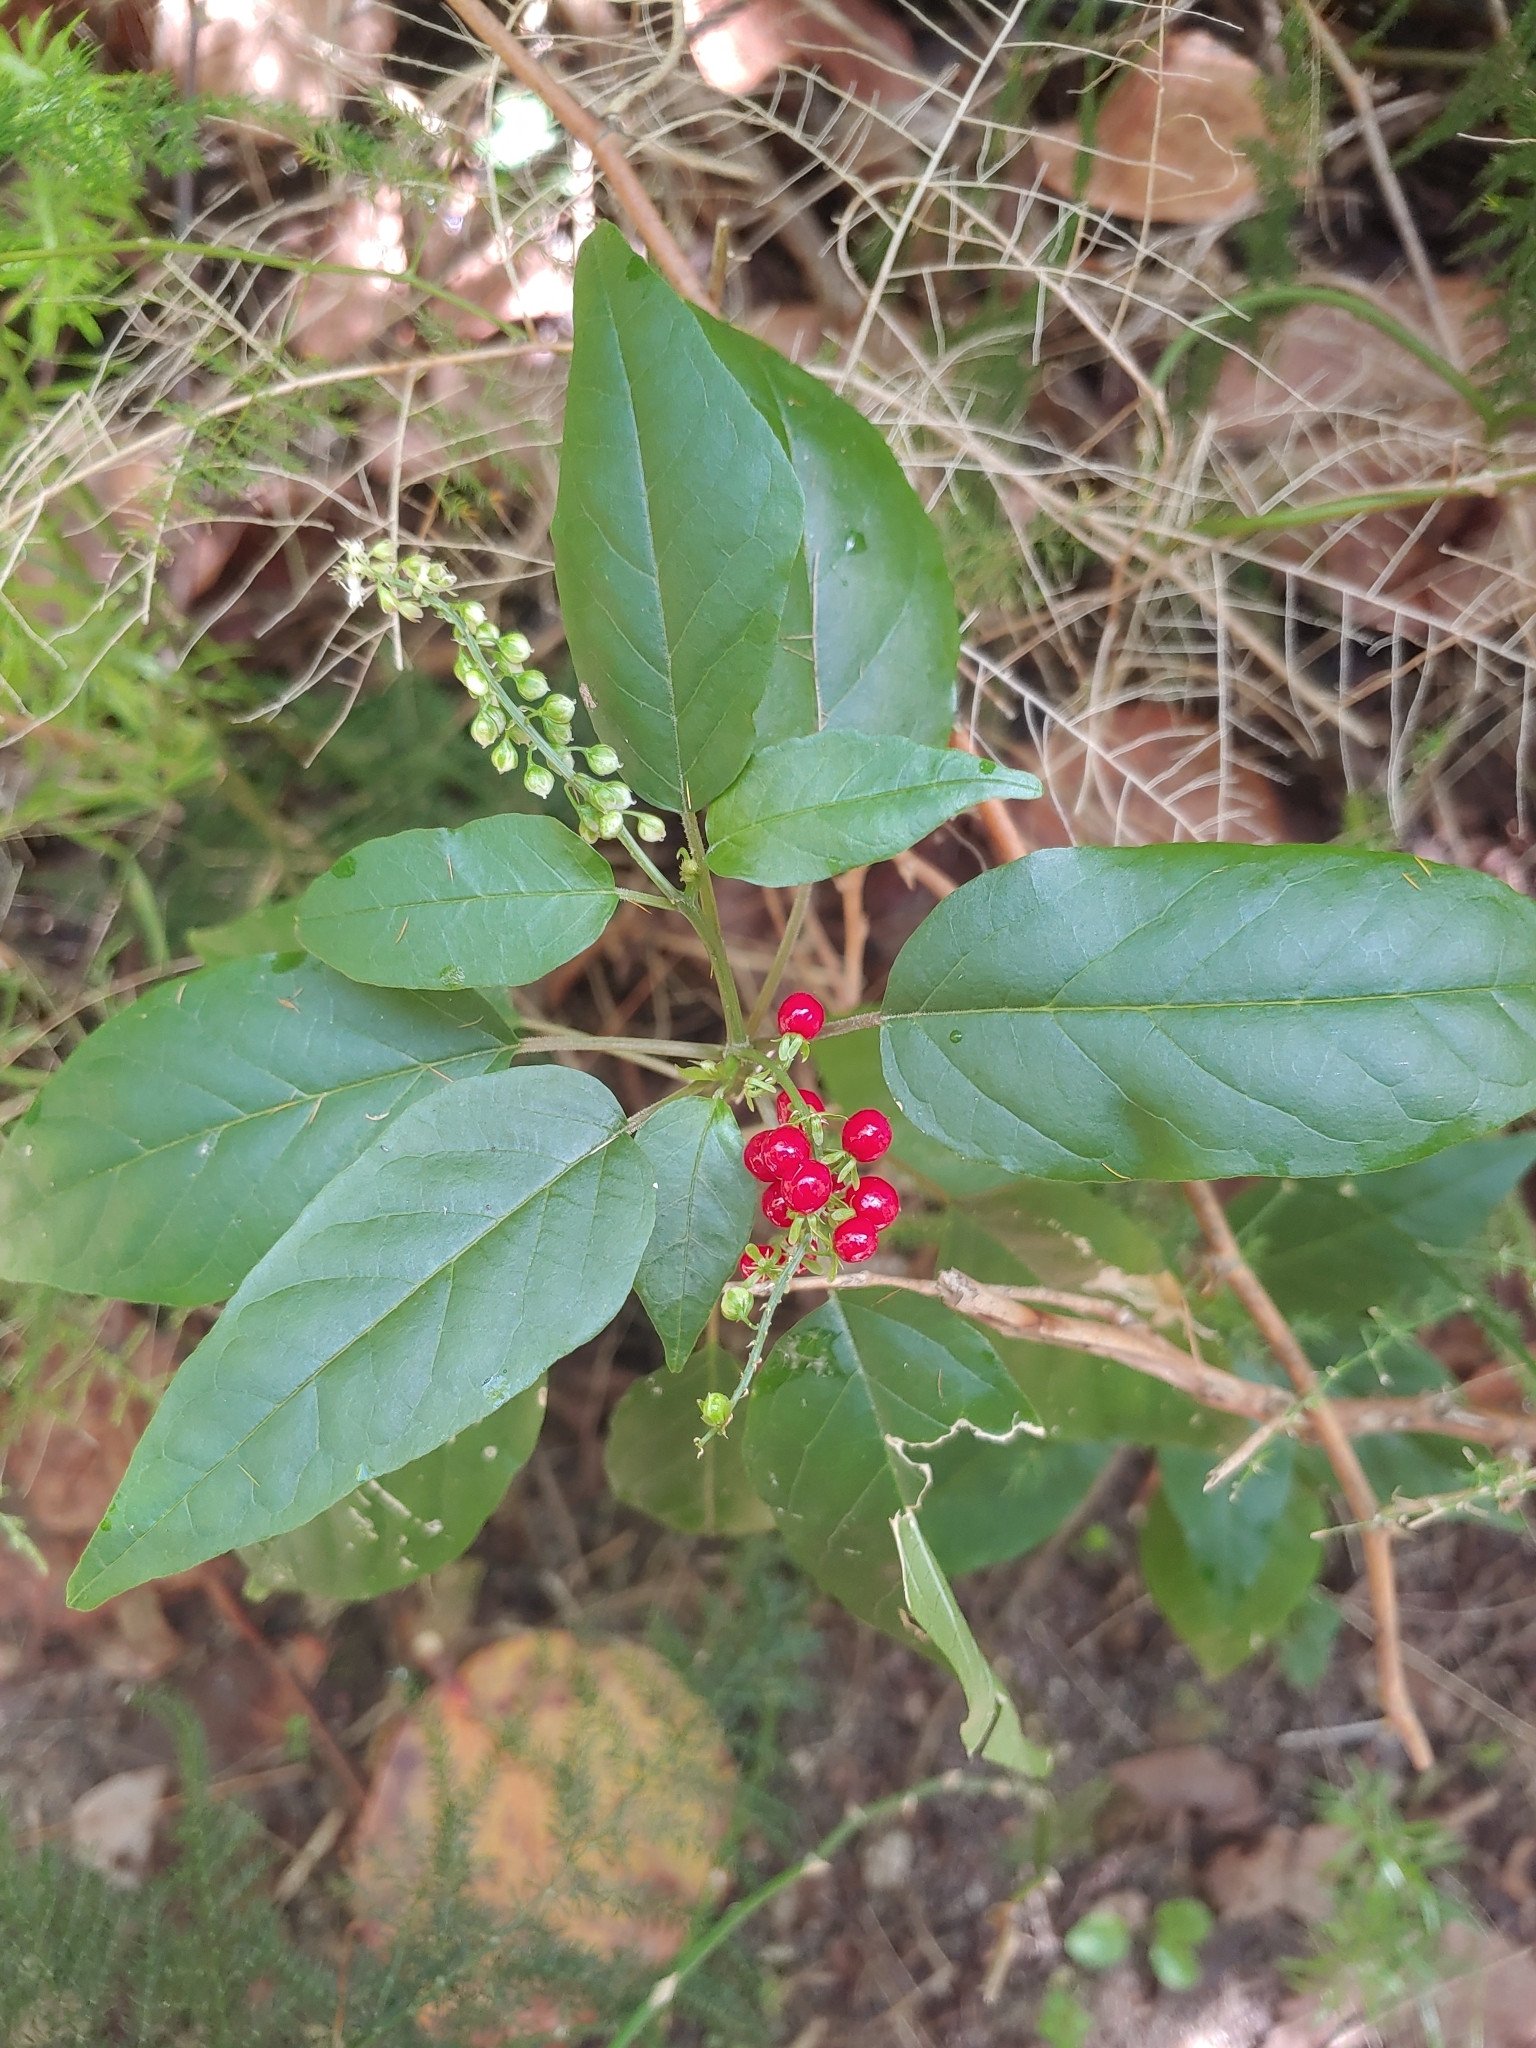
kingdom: Plantae
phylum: Tracheophyta
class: Magnoliopsida
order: Caryophyllales
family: Phytolaccaceae
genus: Rivina
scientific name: Rivina humilis
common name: Rougeplant
